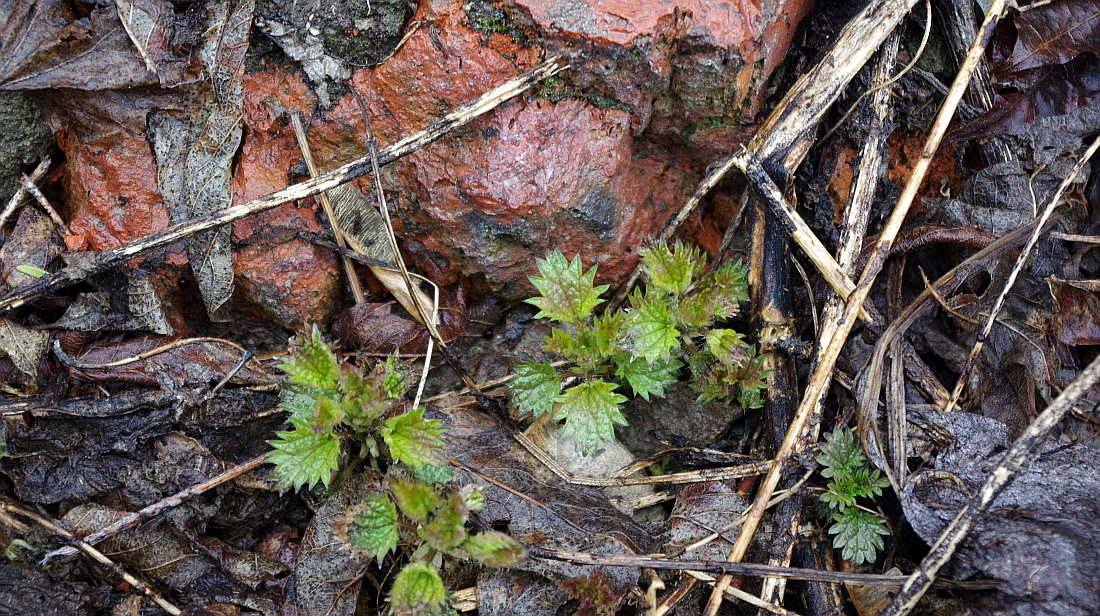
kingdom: Plantae
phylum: Tracheophyta
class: Magnoliopsida
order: Rosales
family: Urticaceae
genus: Urtica
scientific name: Urtica dioica
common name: Common nettle
